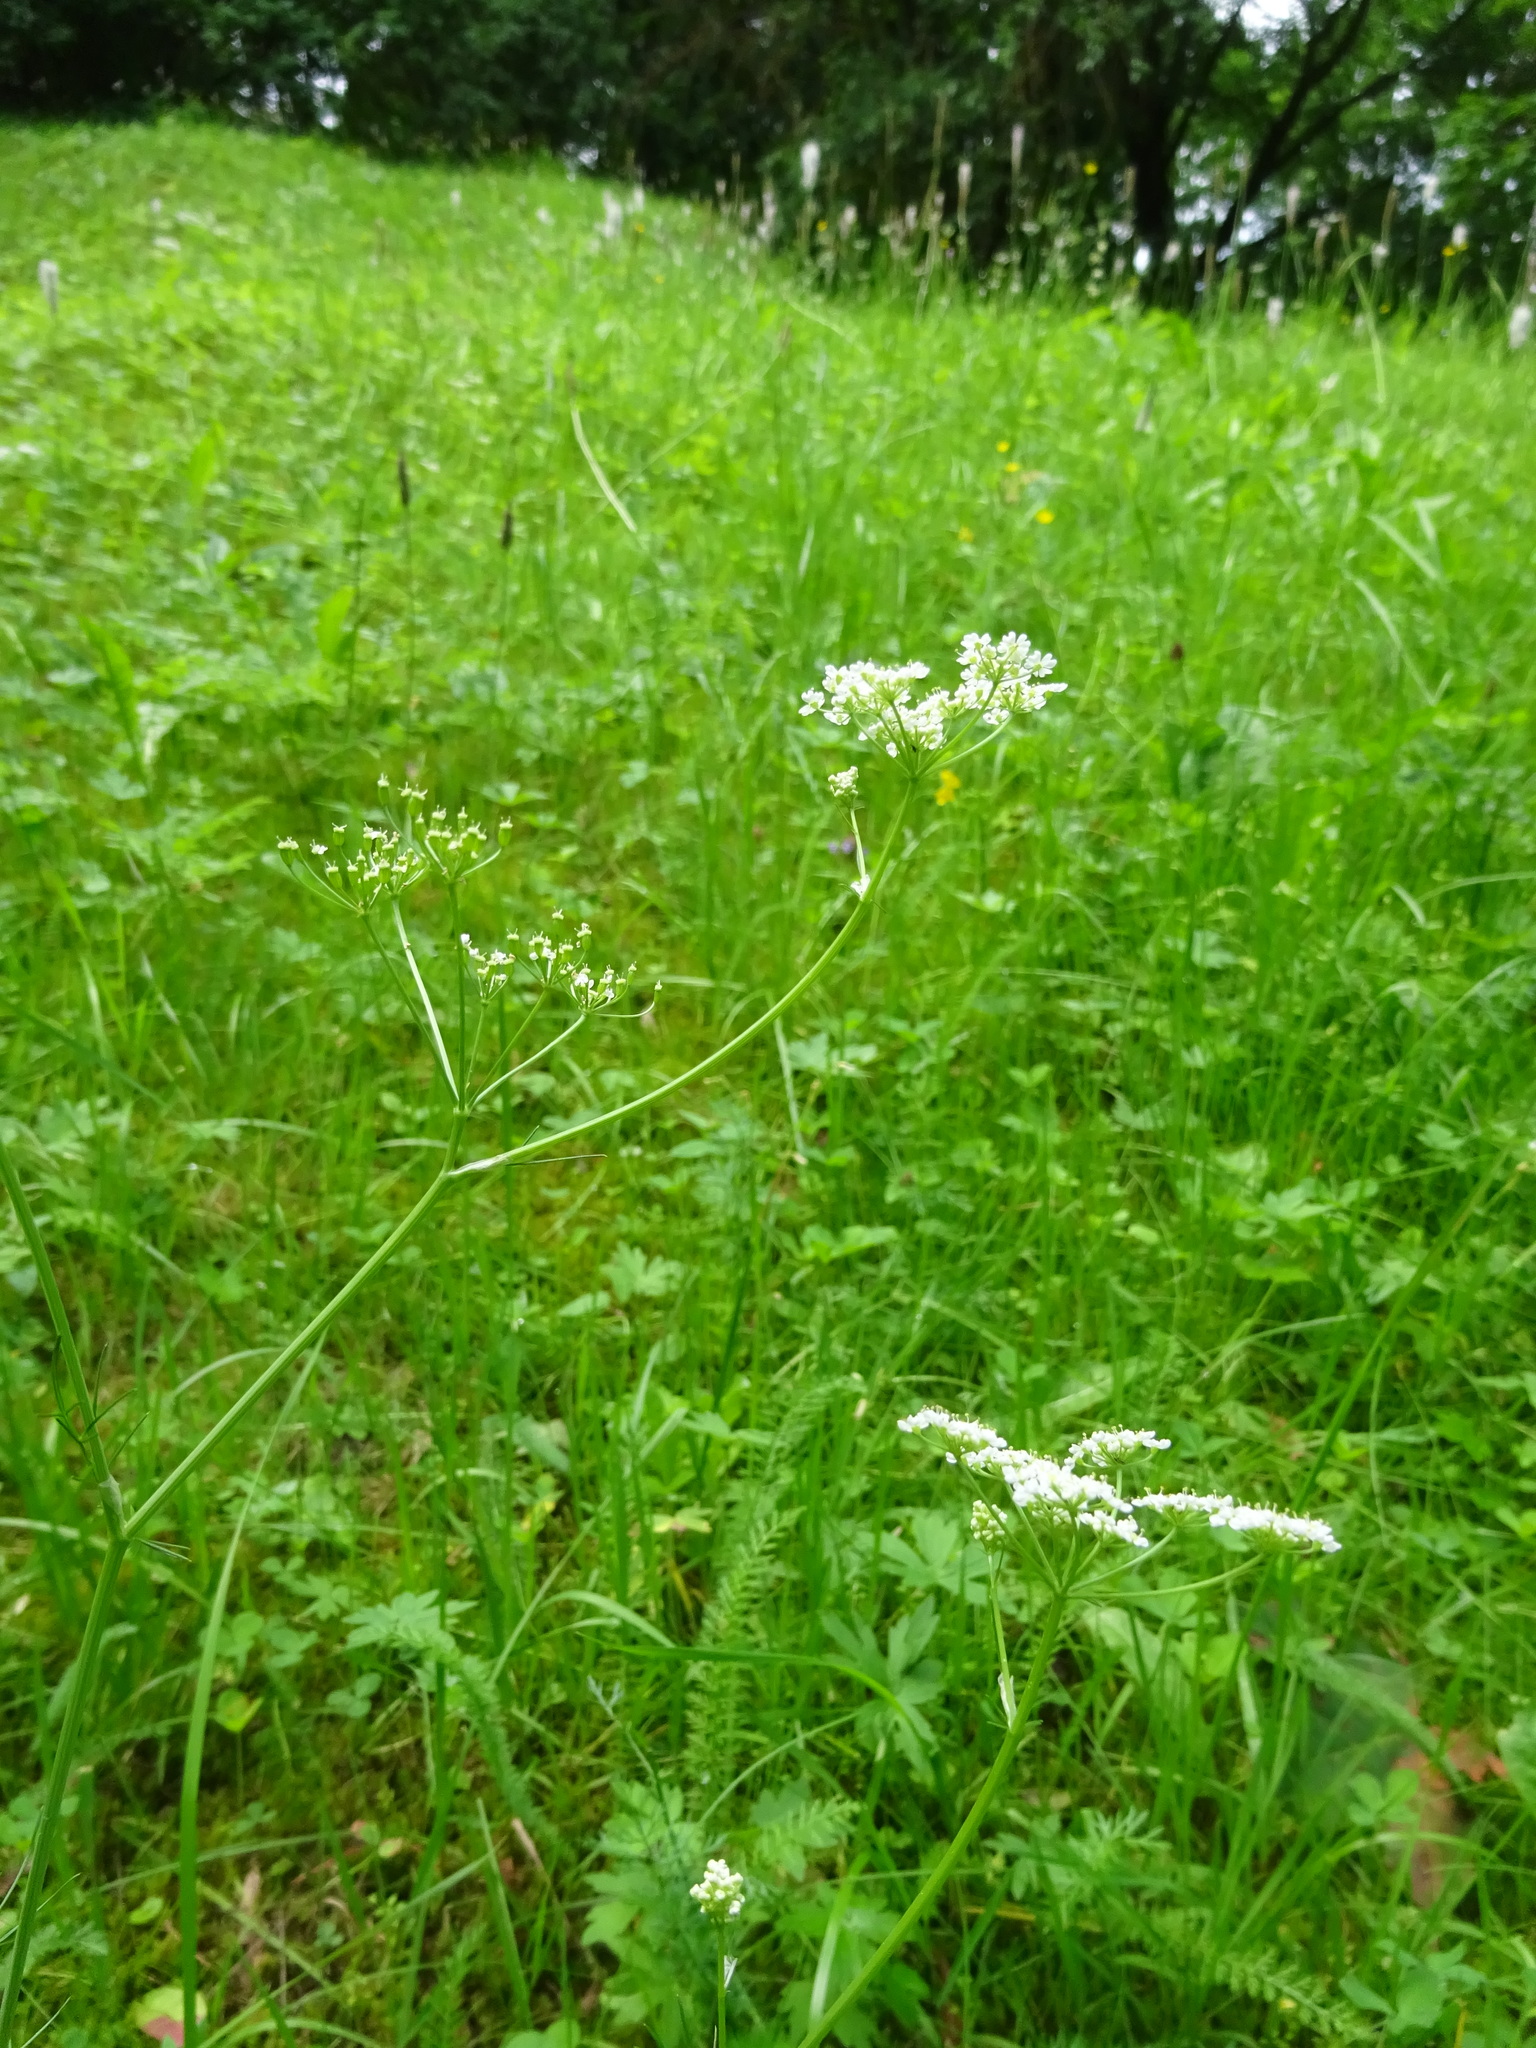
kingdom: Plantae
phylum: Tracheophyta
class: Magnoliopsida
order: Apiales
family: Apiaceae
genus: Carum
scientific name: Carum carvi
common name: Caraway
